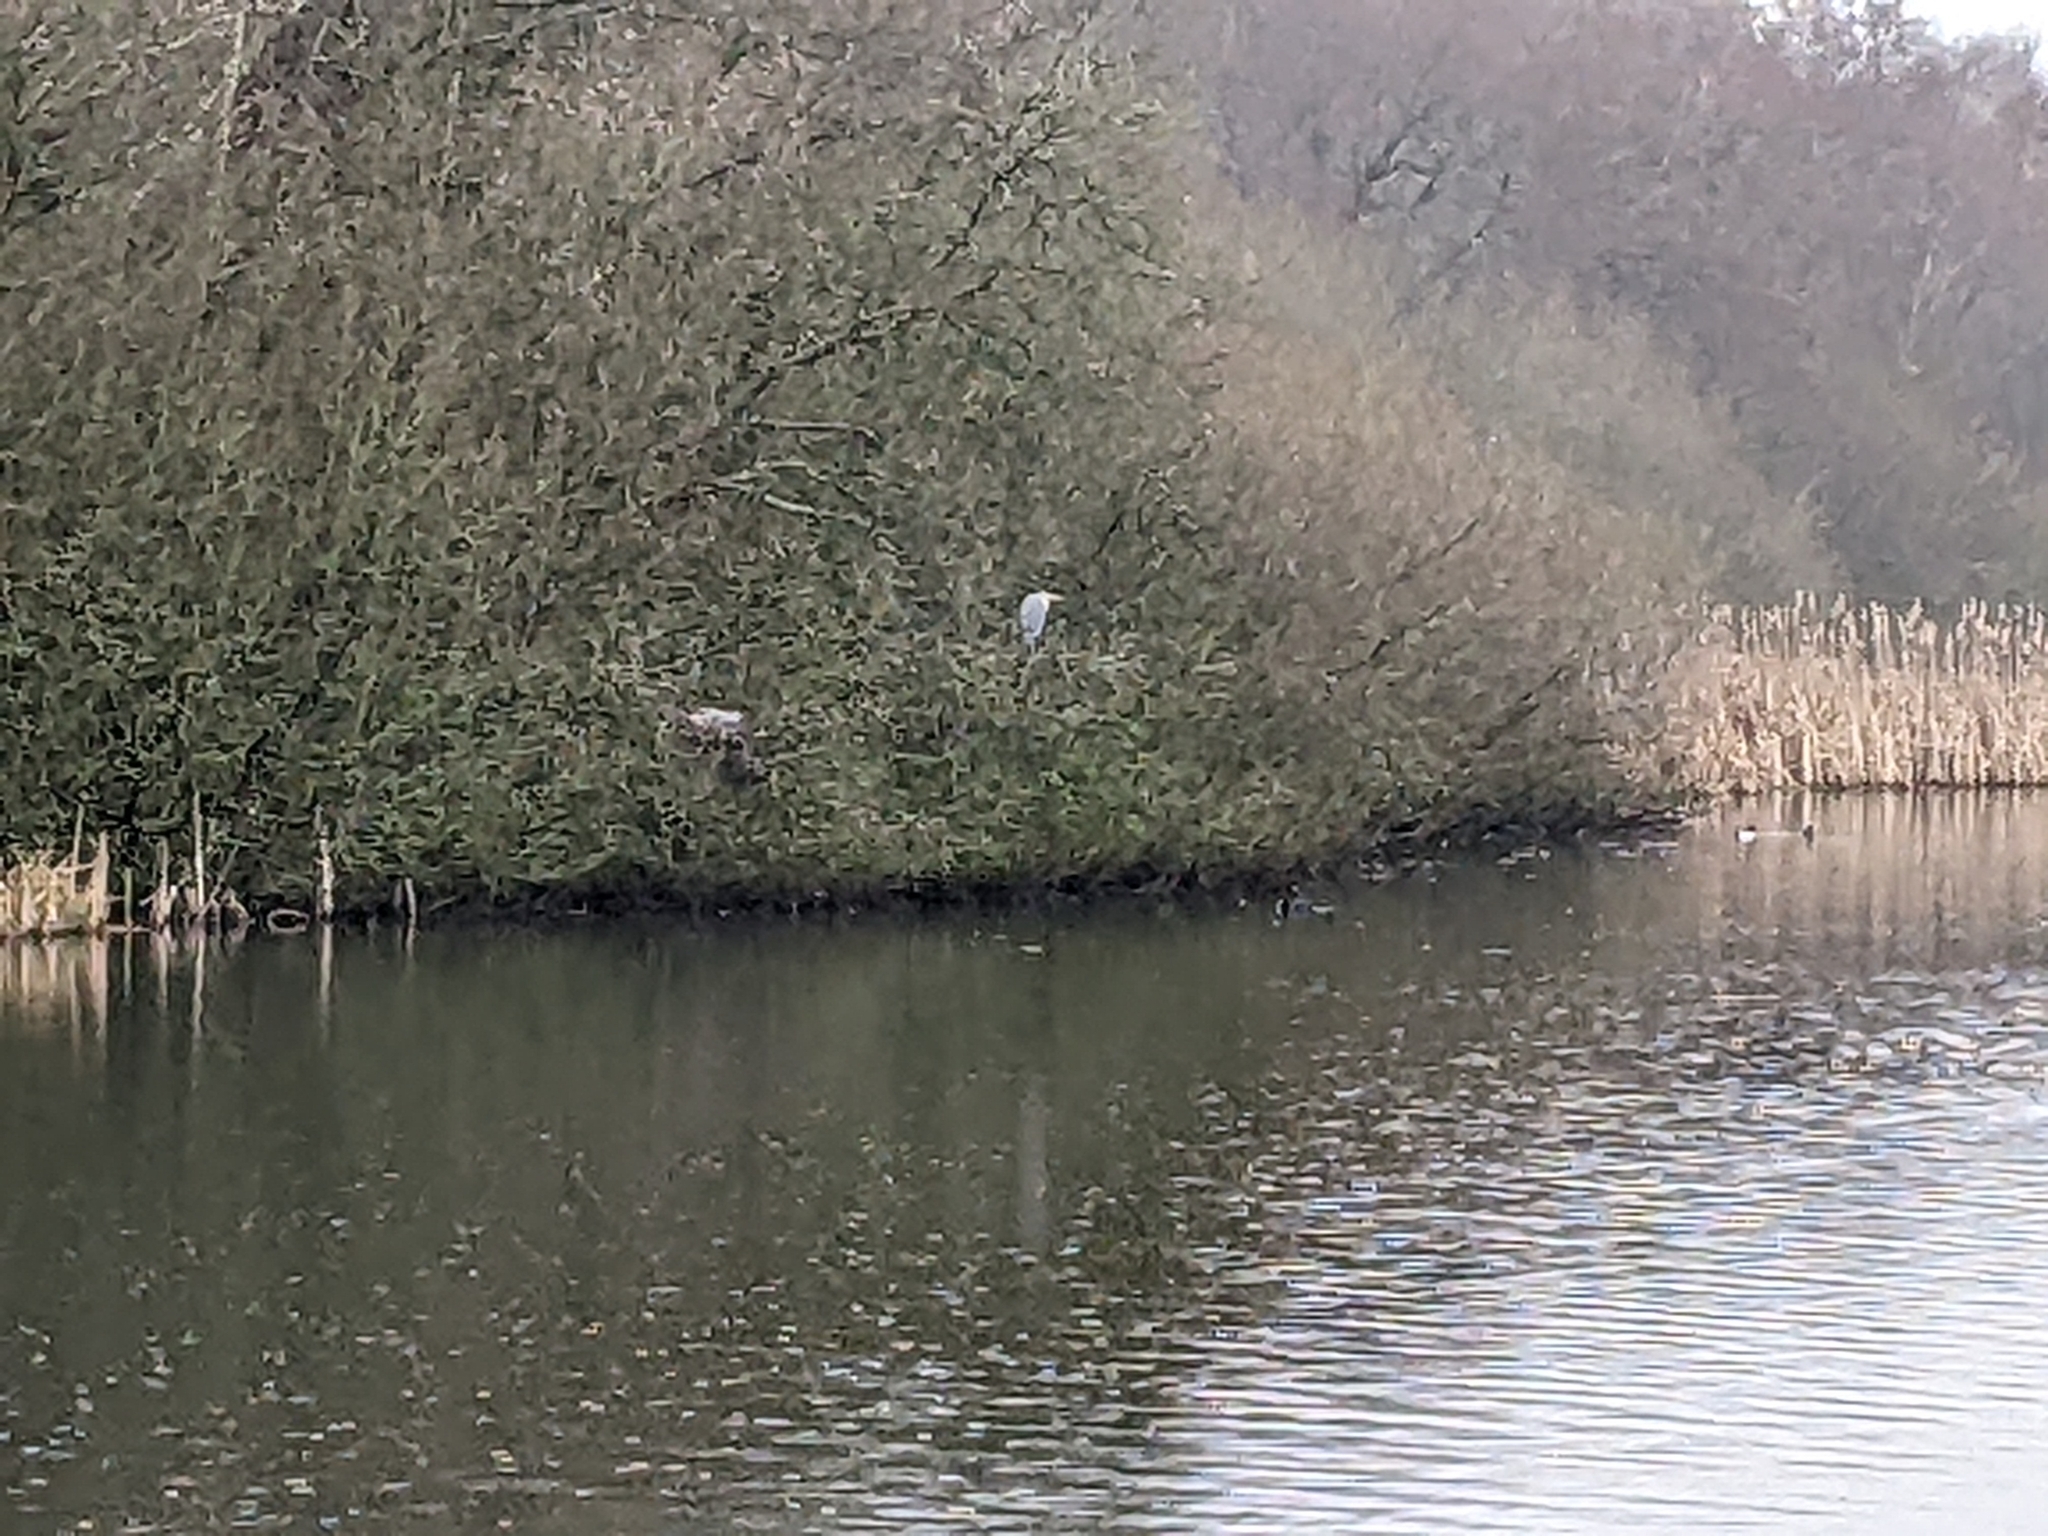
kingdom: Animalia
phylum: Chordata
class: Aves
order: Pelecaniformes
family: Ardeidae
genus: Ardea
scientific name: Ardea cinerea
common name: Grey heron
